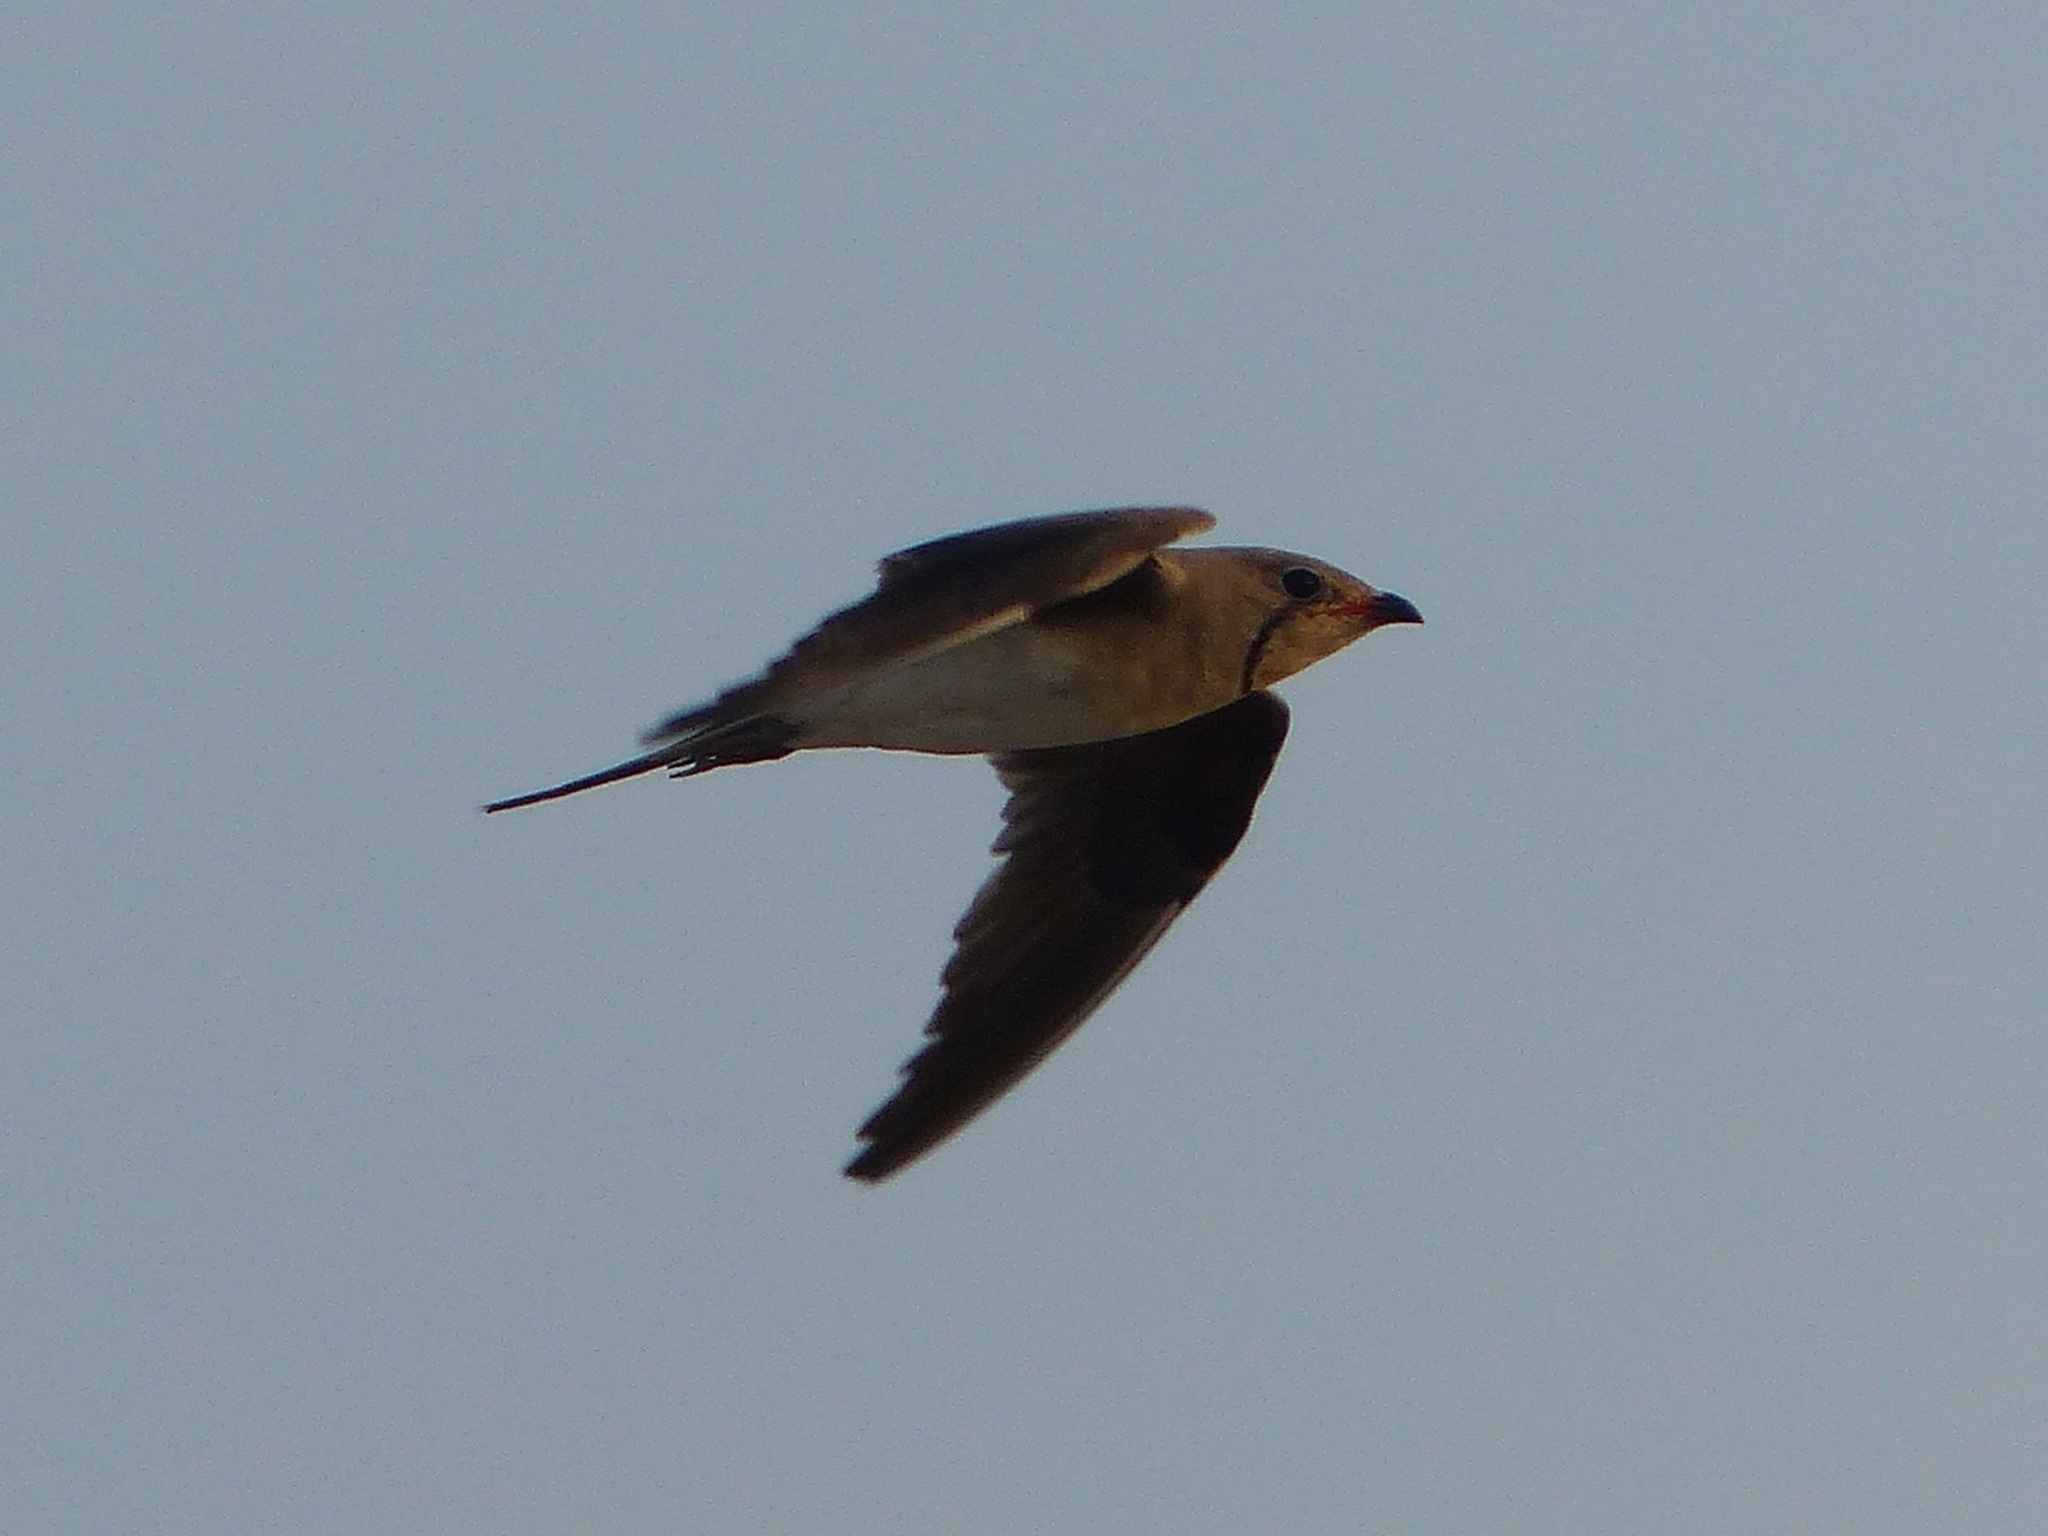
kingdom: Animalia
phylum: Chordata
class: Aves
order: Charadriiformes
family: Glareolidae
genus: Glareola
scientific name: Glareola pratincola
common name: Collared pratincole
